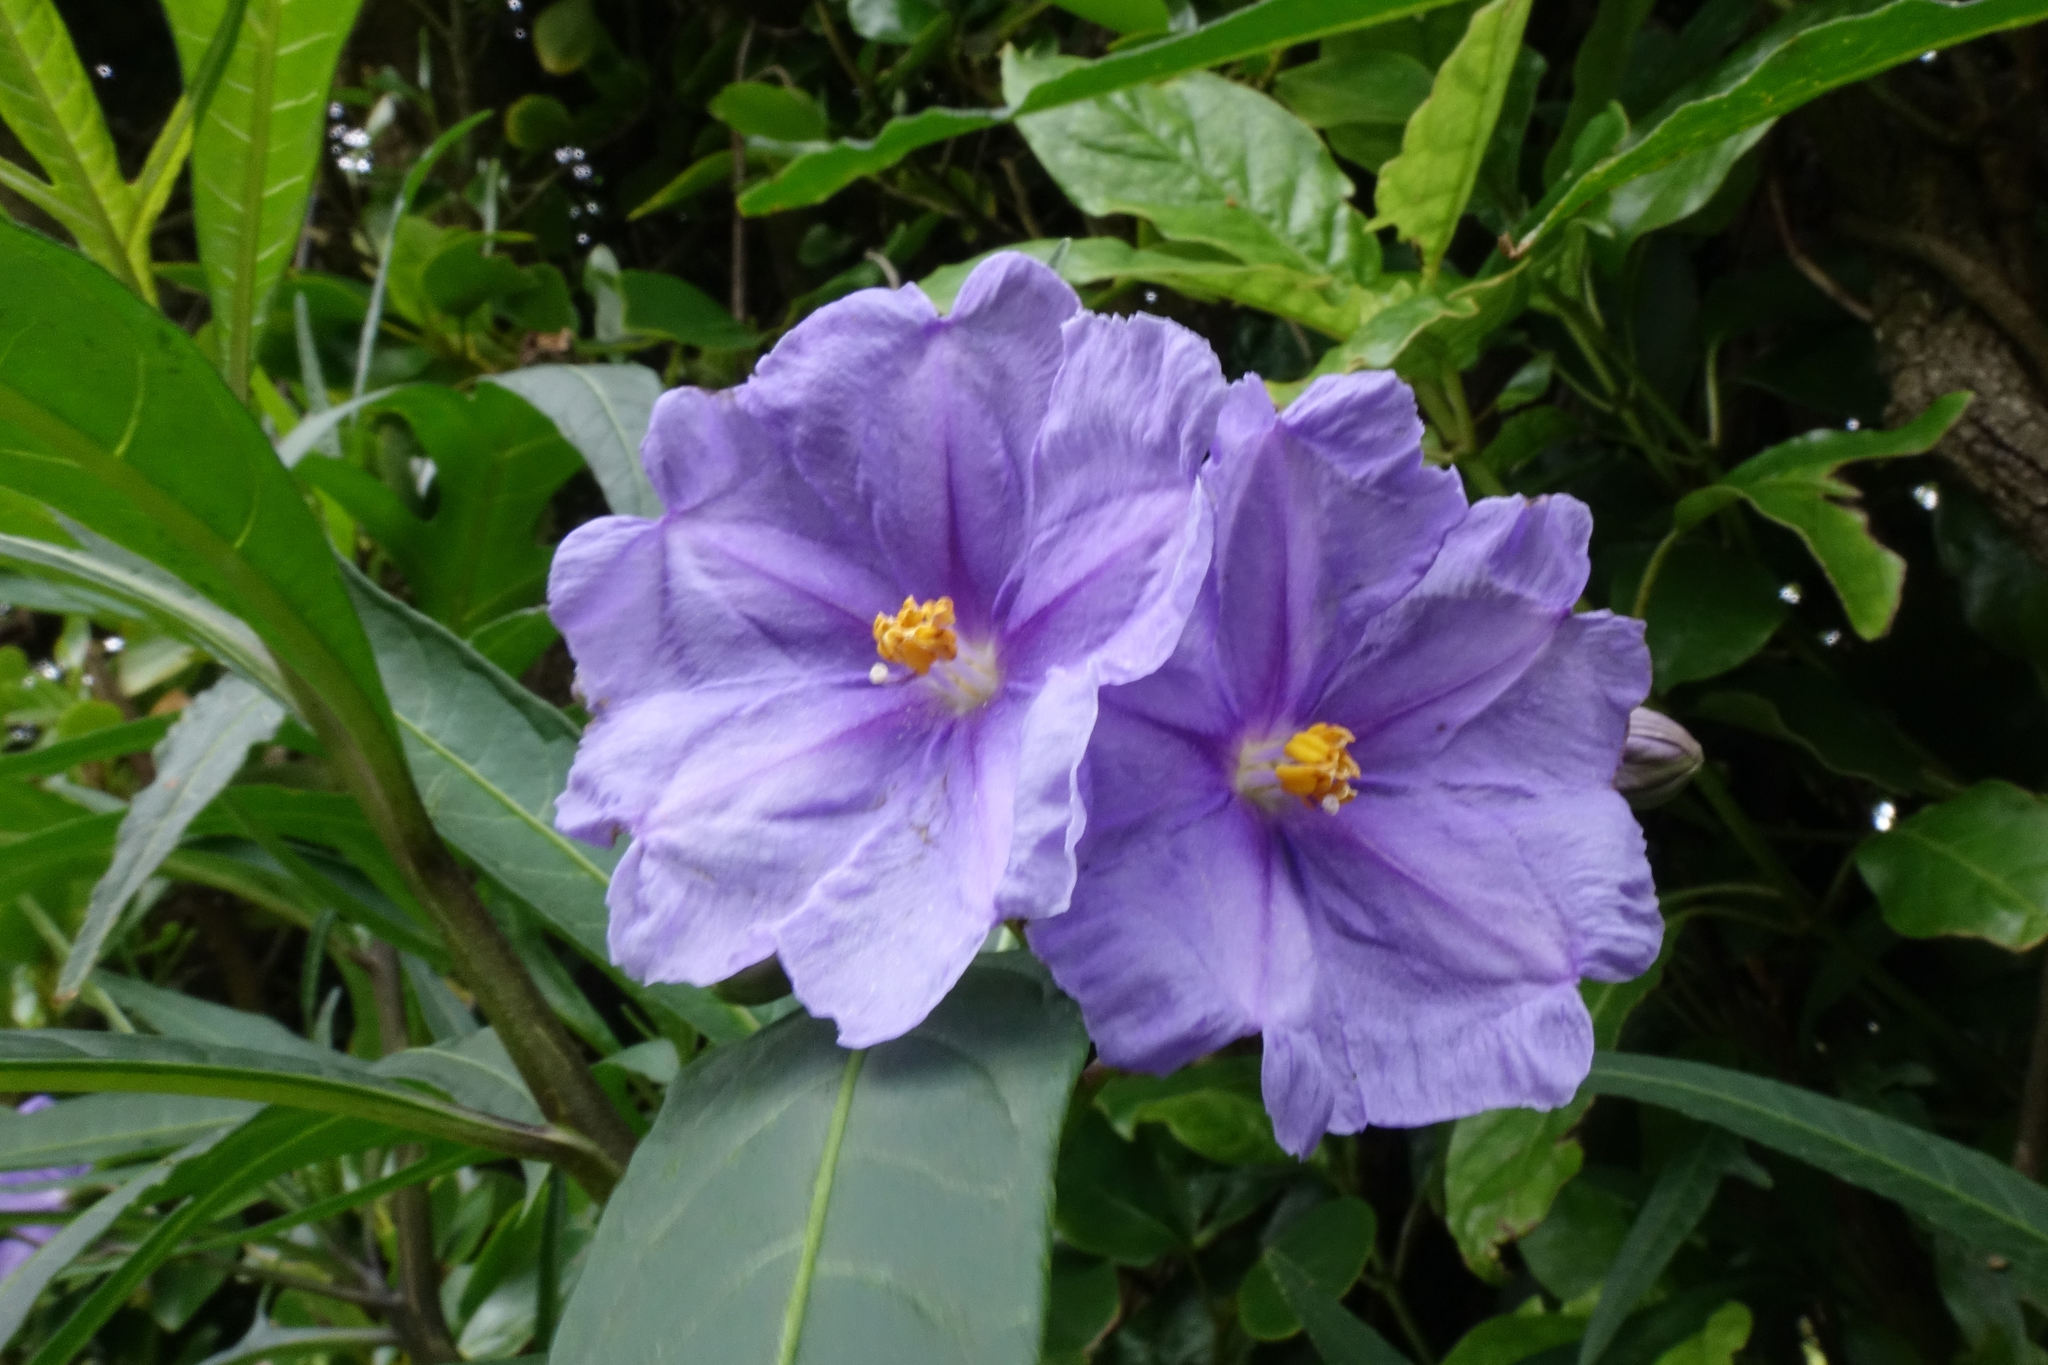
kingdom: Plantae
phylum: Tracheophyta
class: Magnoliopsida
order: Solanales
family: Solanaceae
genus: Solanum
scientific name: Solanum laciniatum
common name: Kangaroo-apple
